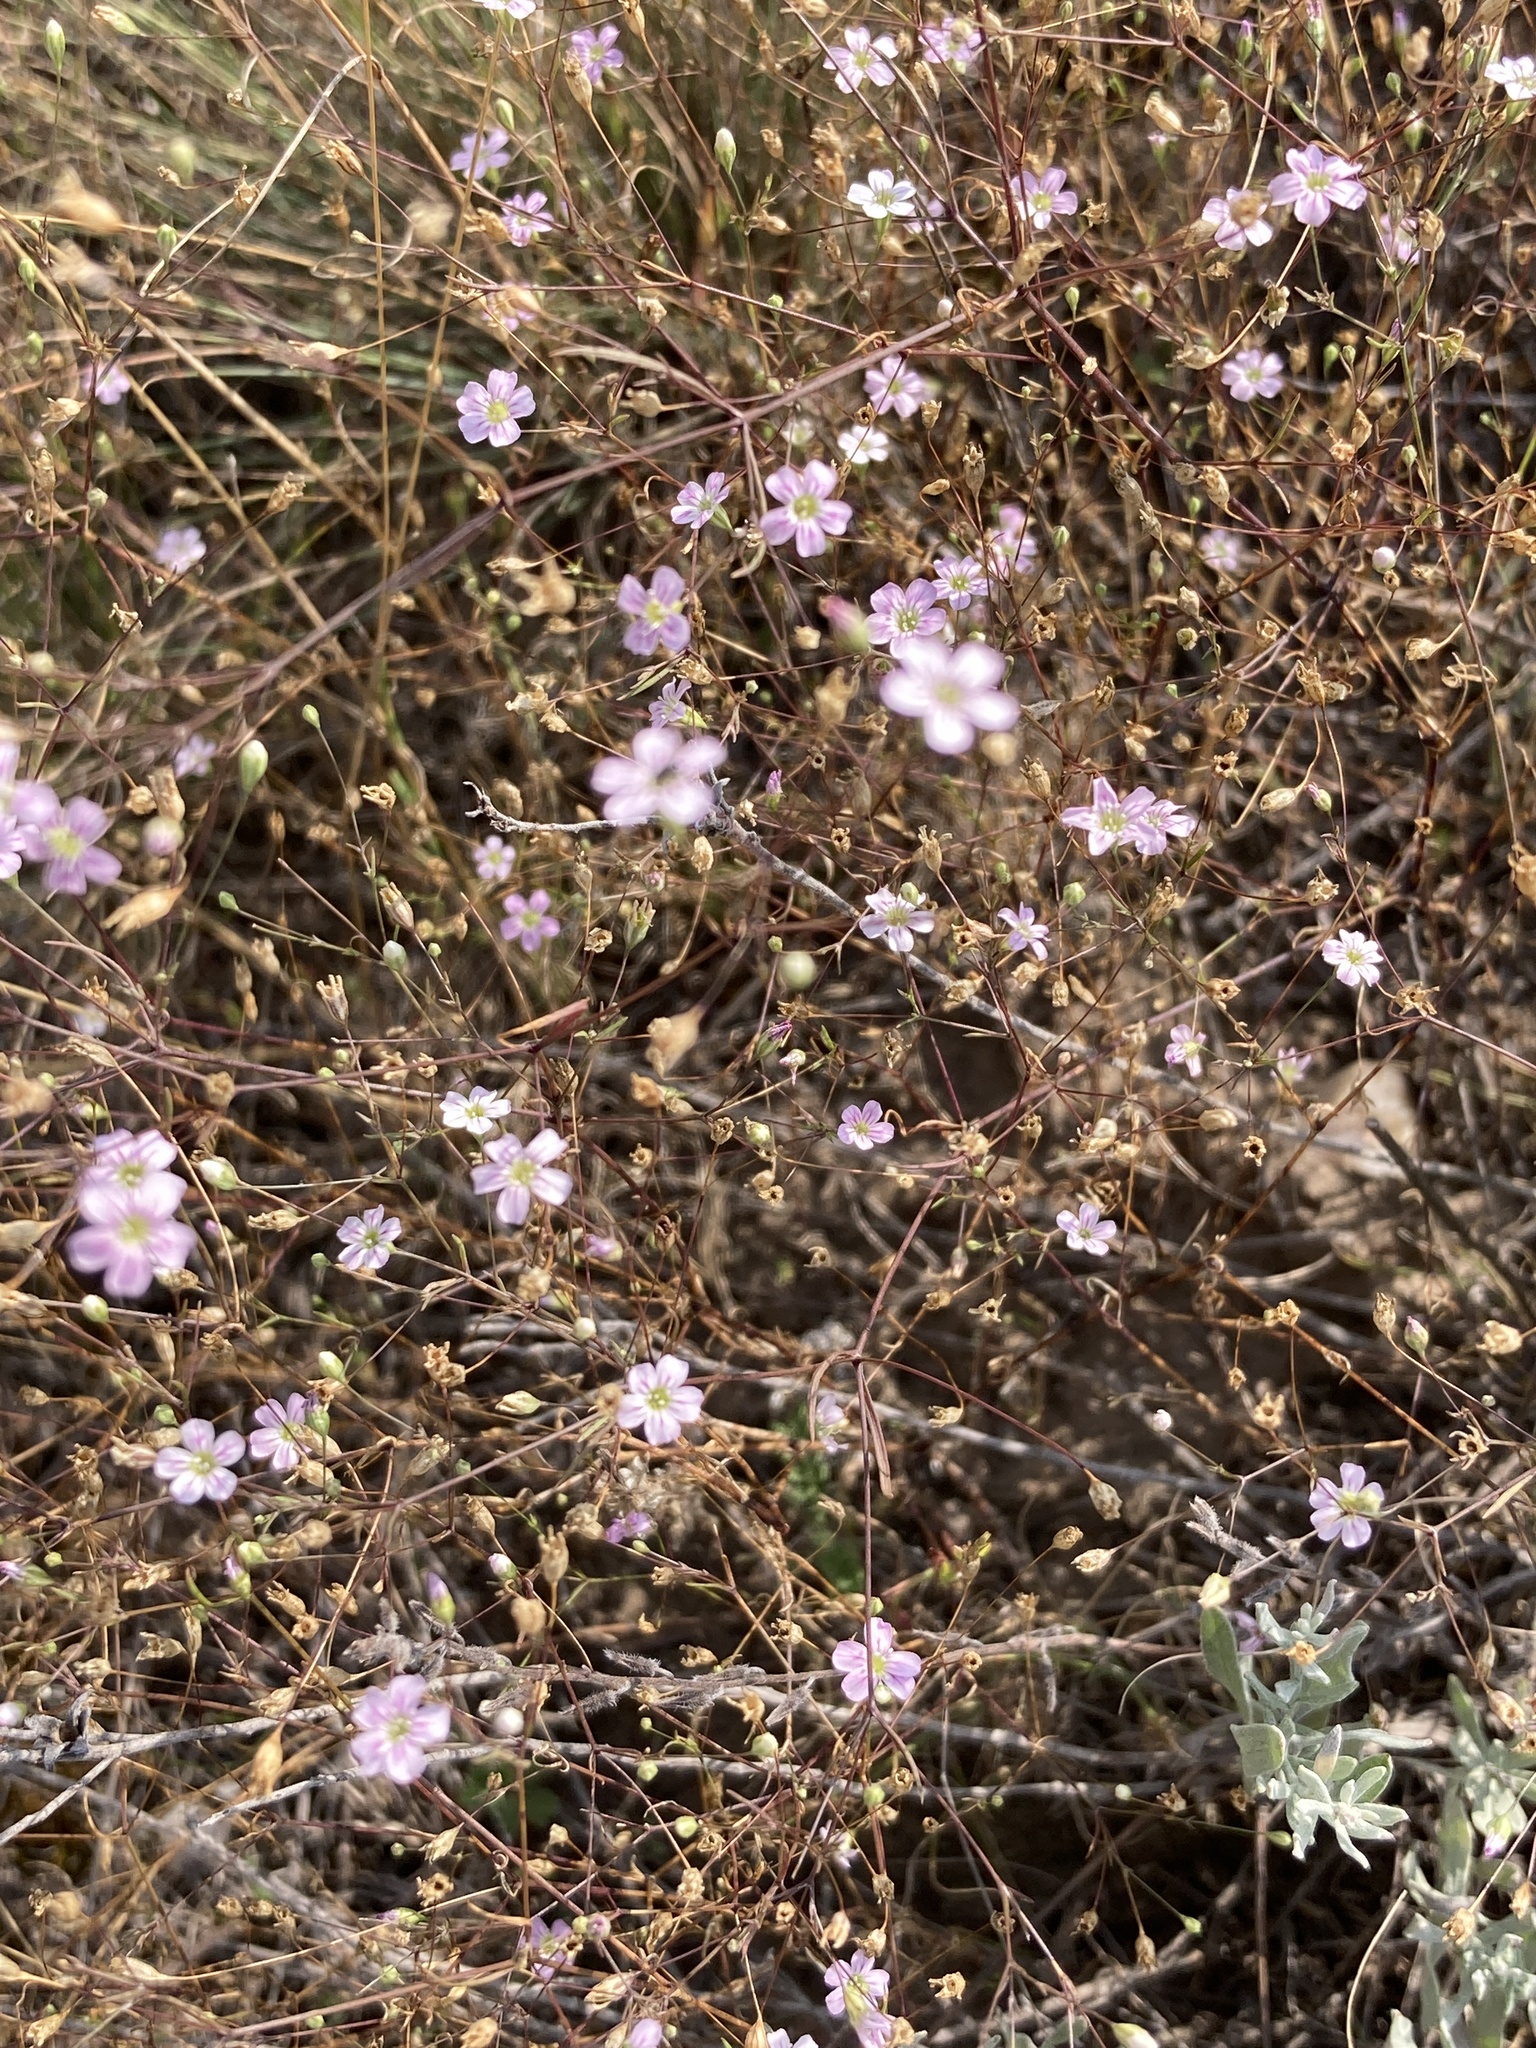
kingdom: Plantae
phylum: Tracheophyta
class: Magnoliopsida
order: Caryophyllales
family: Caryophyllaceae
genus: Psammophiliella
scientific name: Psammophiliella muralis
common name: Cushion baby's-breath
